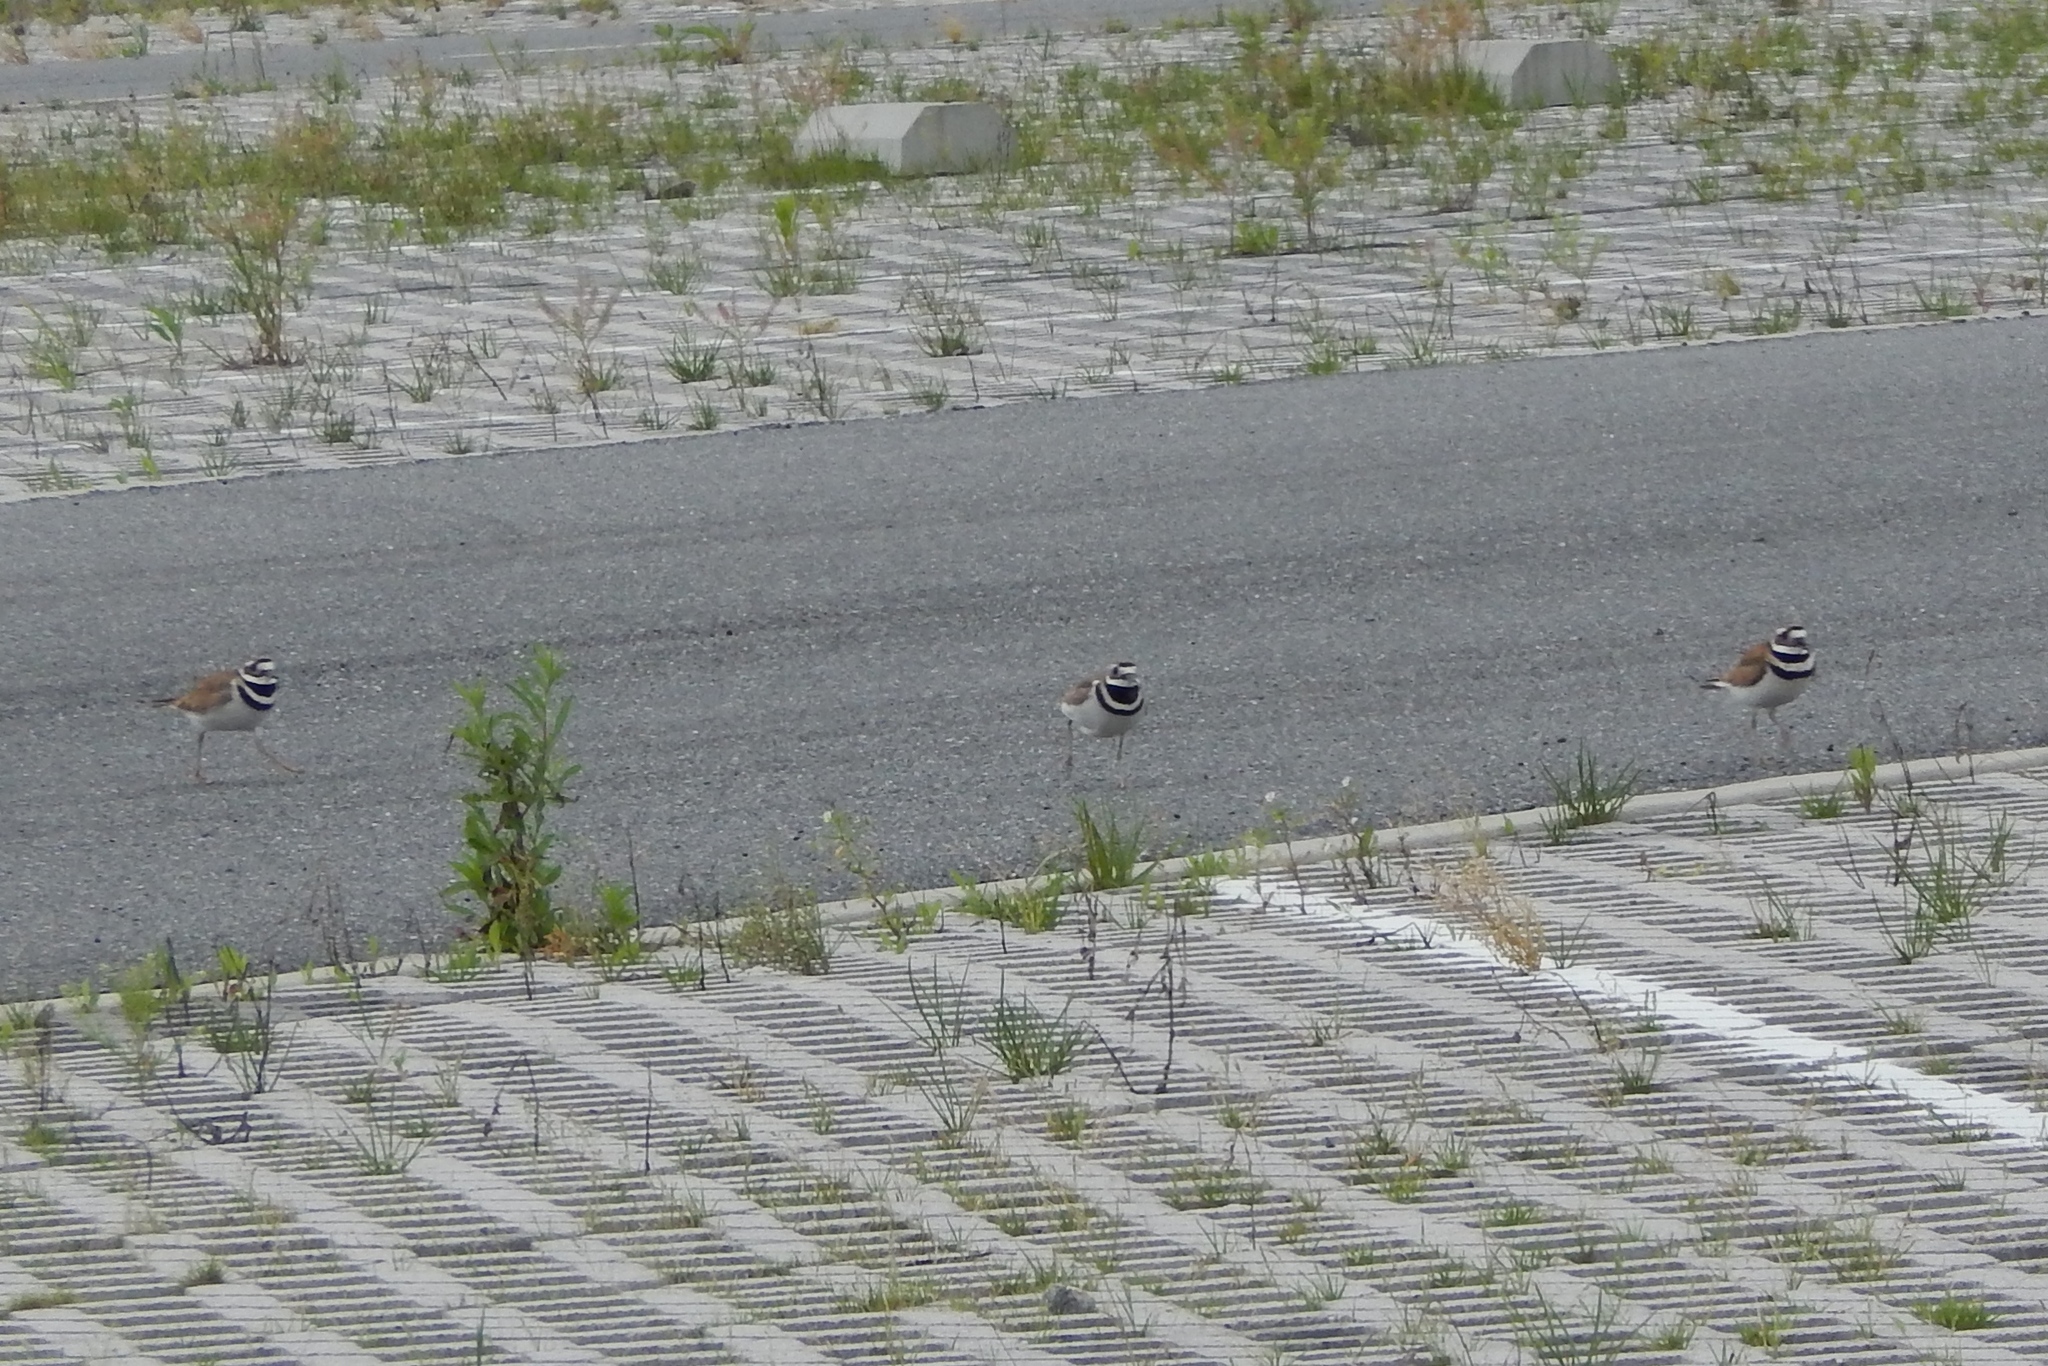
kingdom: Animalia
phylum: Chordata
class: Aves
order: Charadriiformes
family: Charadriidae
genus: Charadrius
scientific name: Charadrius vociferus
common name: Killdeer
